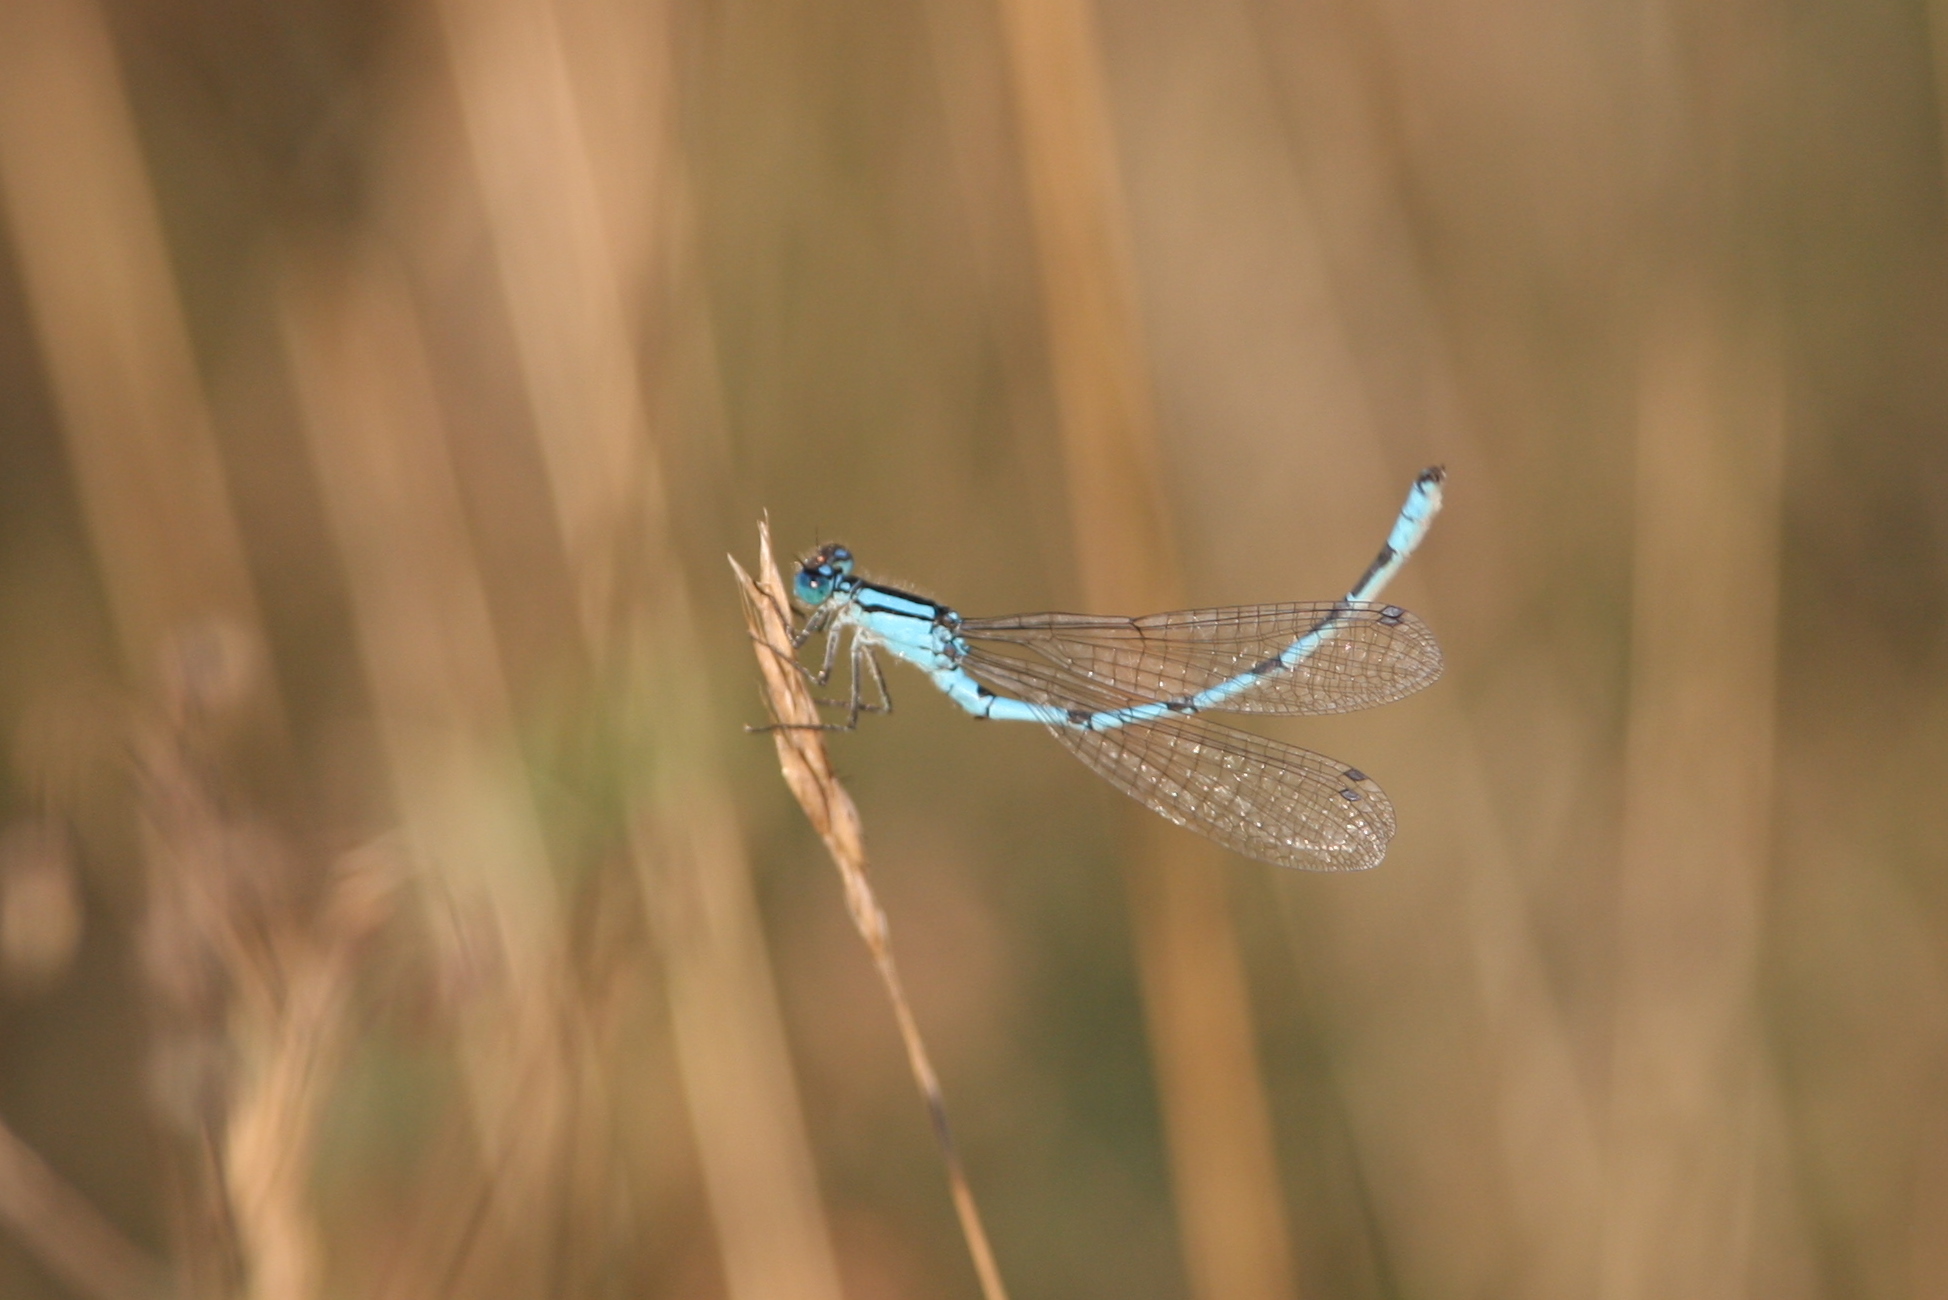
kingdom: Animalia
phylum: Arthropoda
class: Insecta
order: Odonata
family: Coenagrionidae
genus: Enallagma
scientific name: Enallagma cyathigerum
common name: Common blue damselfly
